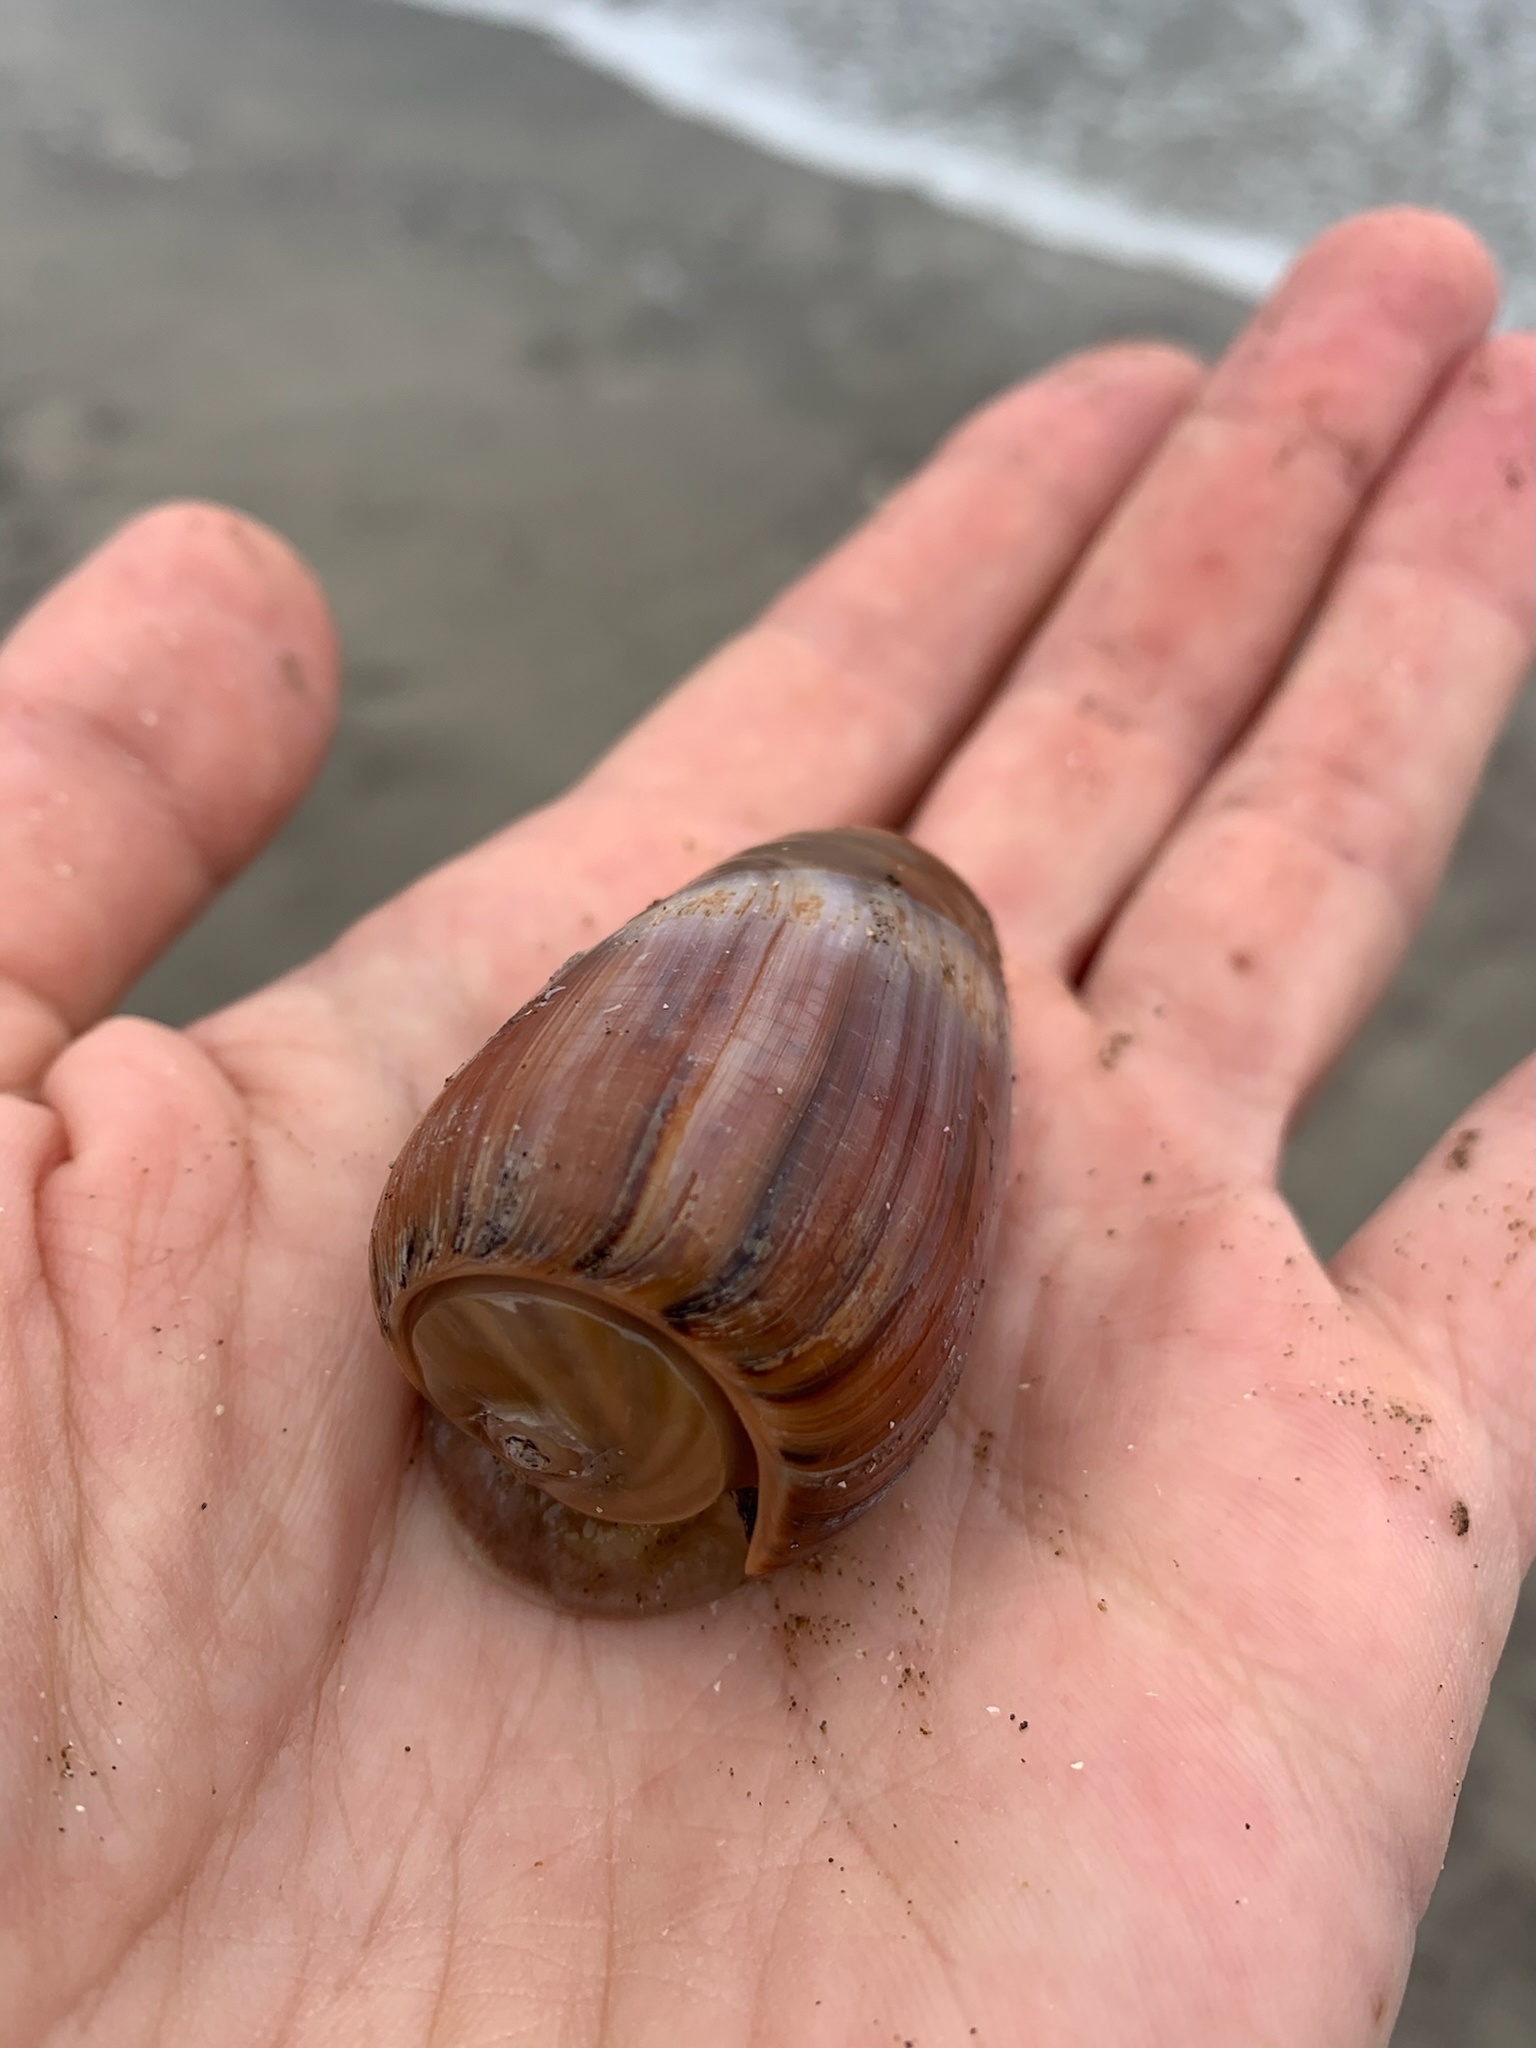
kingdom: Animalia
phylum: Mollusca
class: Gastropoda
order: Neogastropoda
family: Olividae
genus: Olivancillaria
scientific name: Olivancillaria urceus
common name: Bear ancilla
